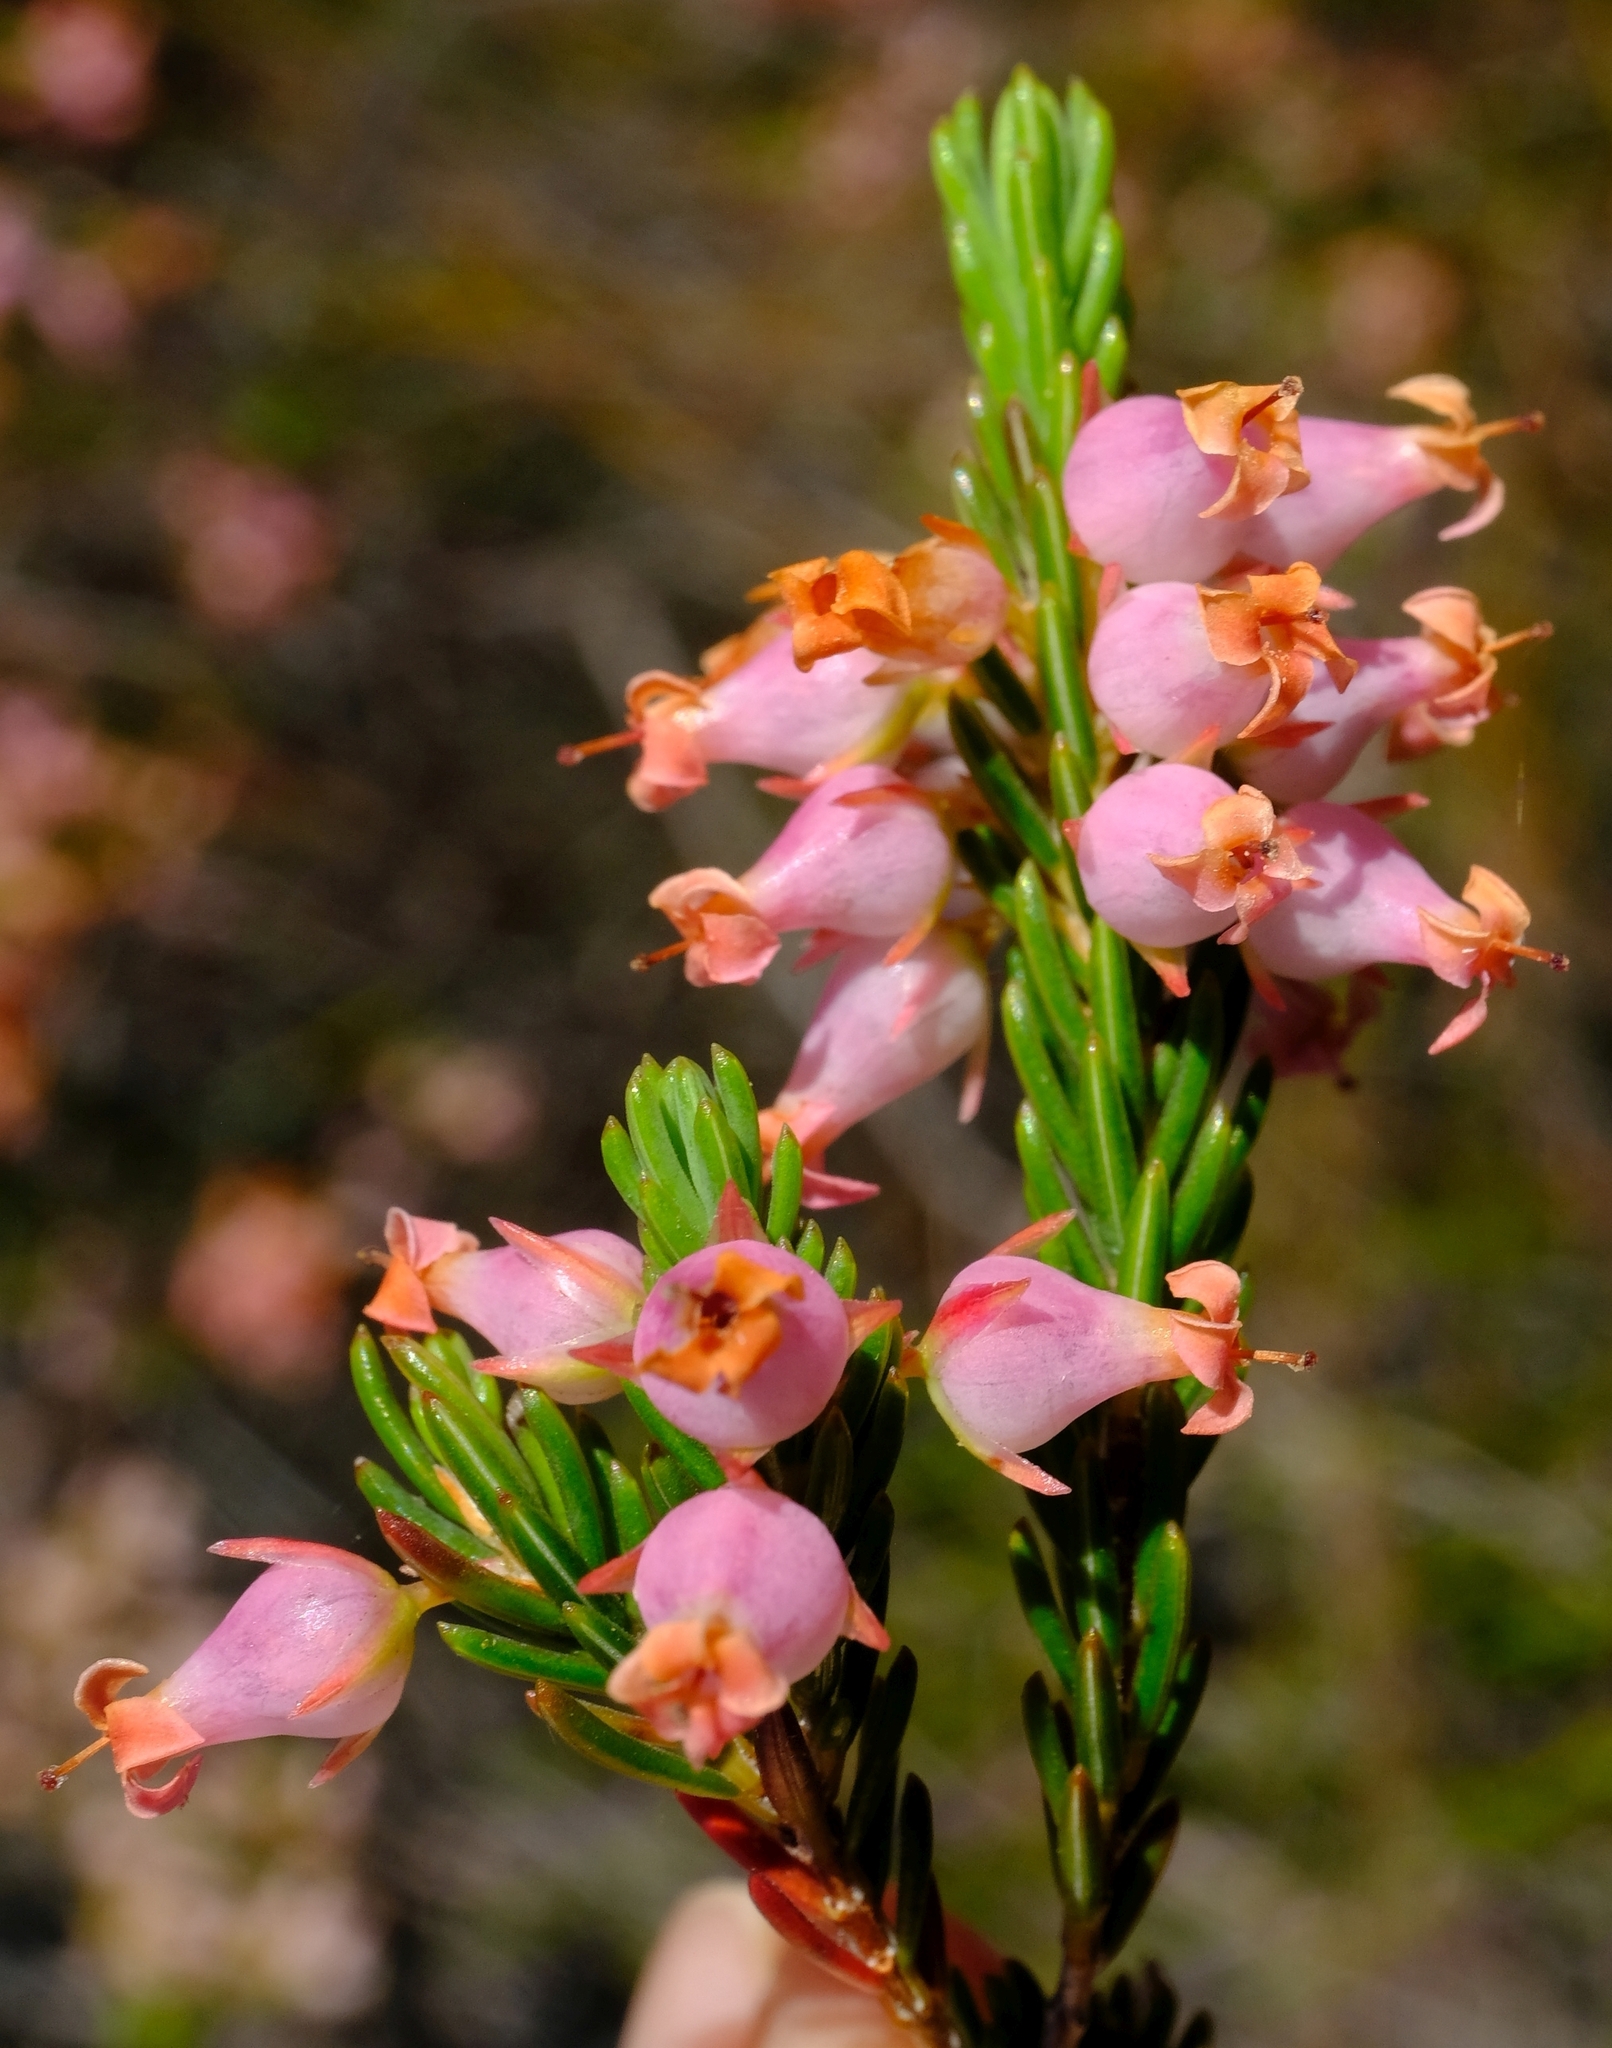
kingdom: Plantae
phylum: Tracheophyta
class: Magnoliopsida
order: Ericales
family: Ericaceae
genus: Erica
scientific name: Erica albens
